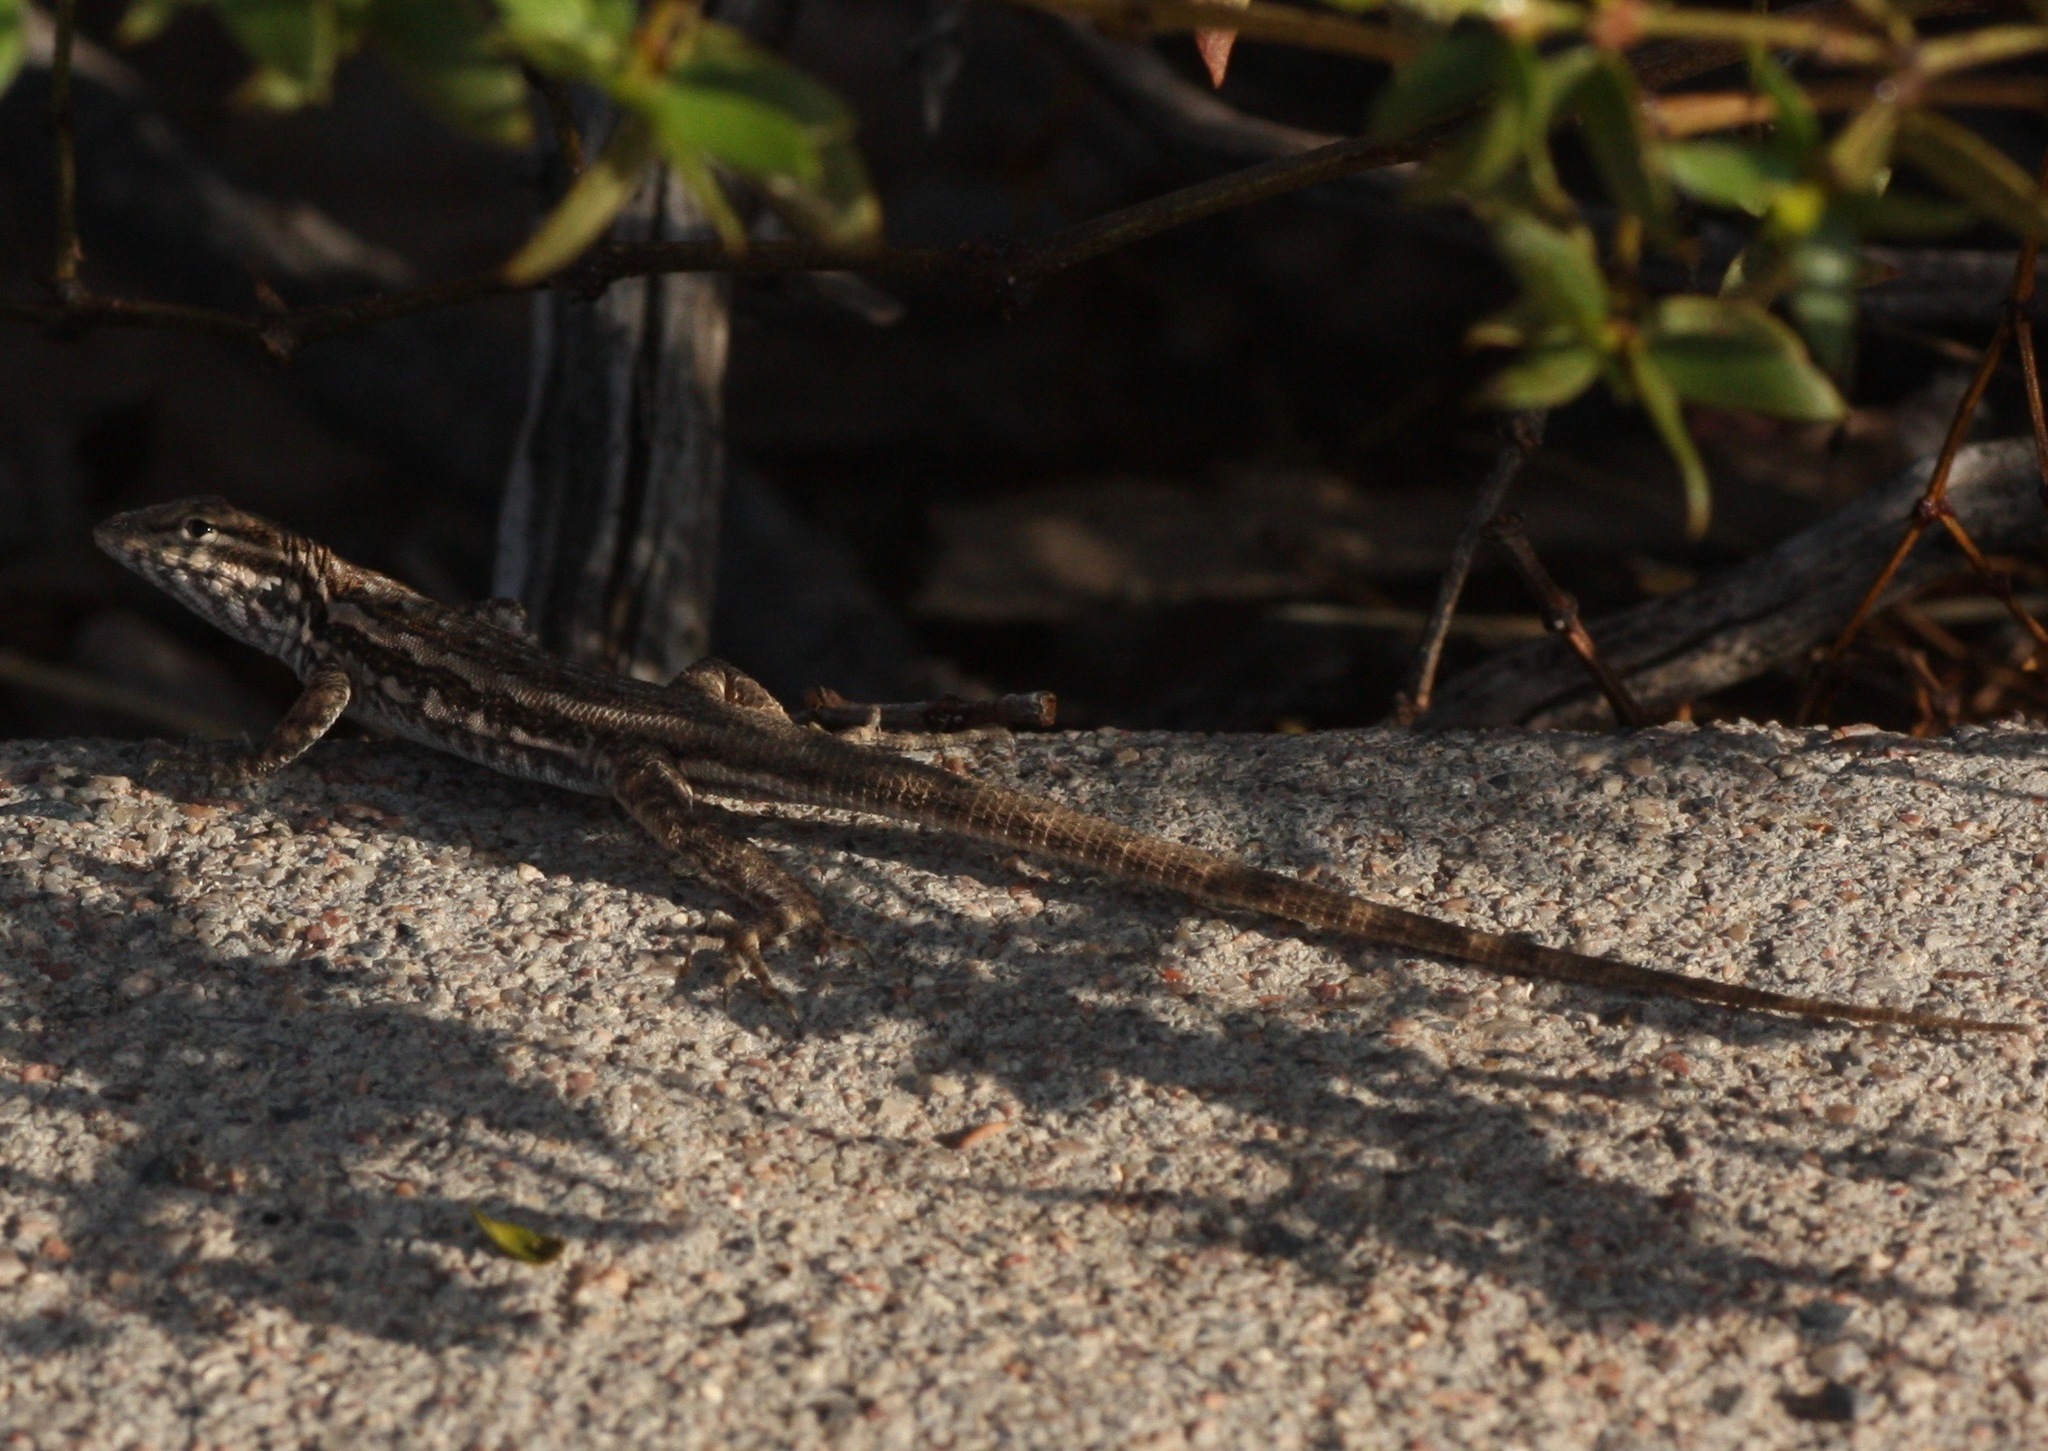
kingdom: Animalia
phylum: Chordata
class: Squamata
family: Phrynosomatidae
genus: Uta
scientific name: Uta stansburiana
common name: Side-blotched lizard
